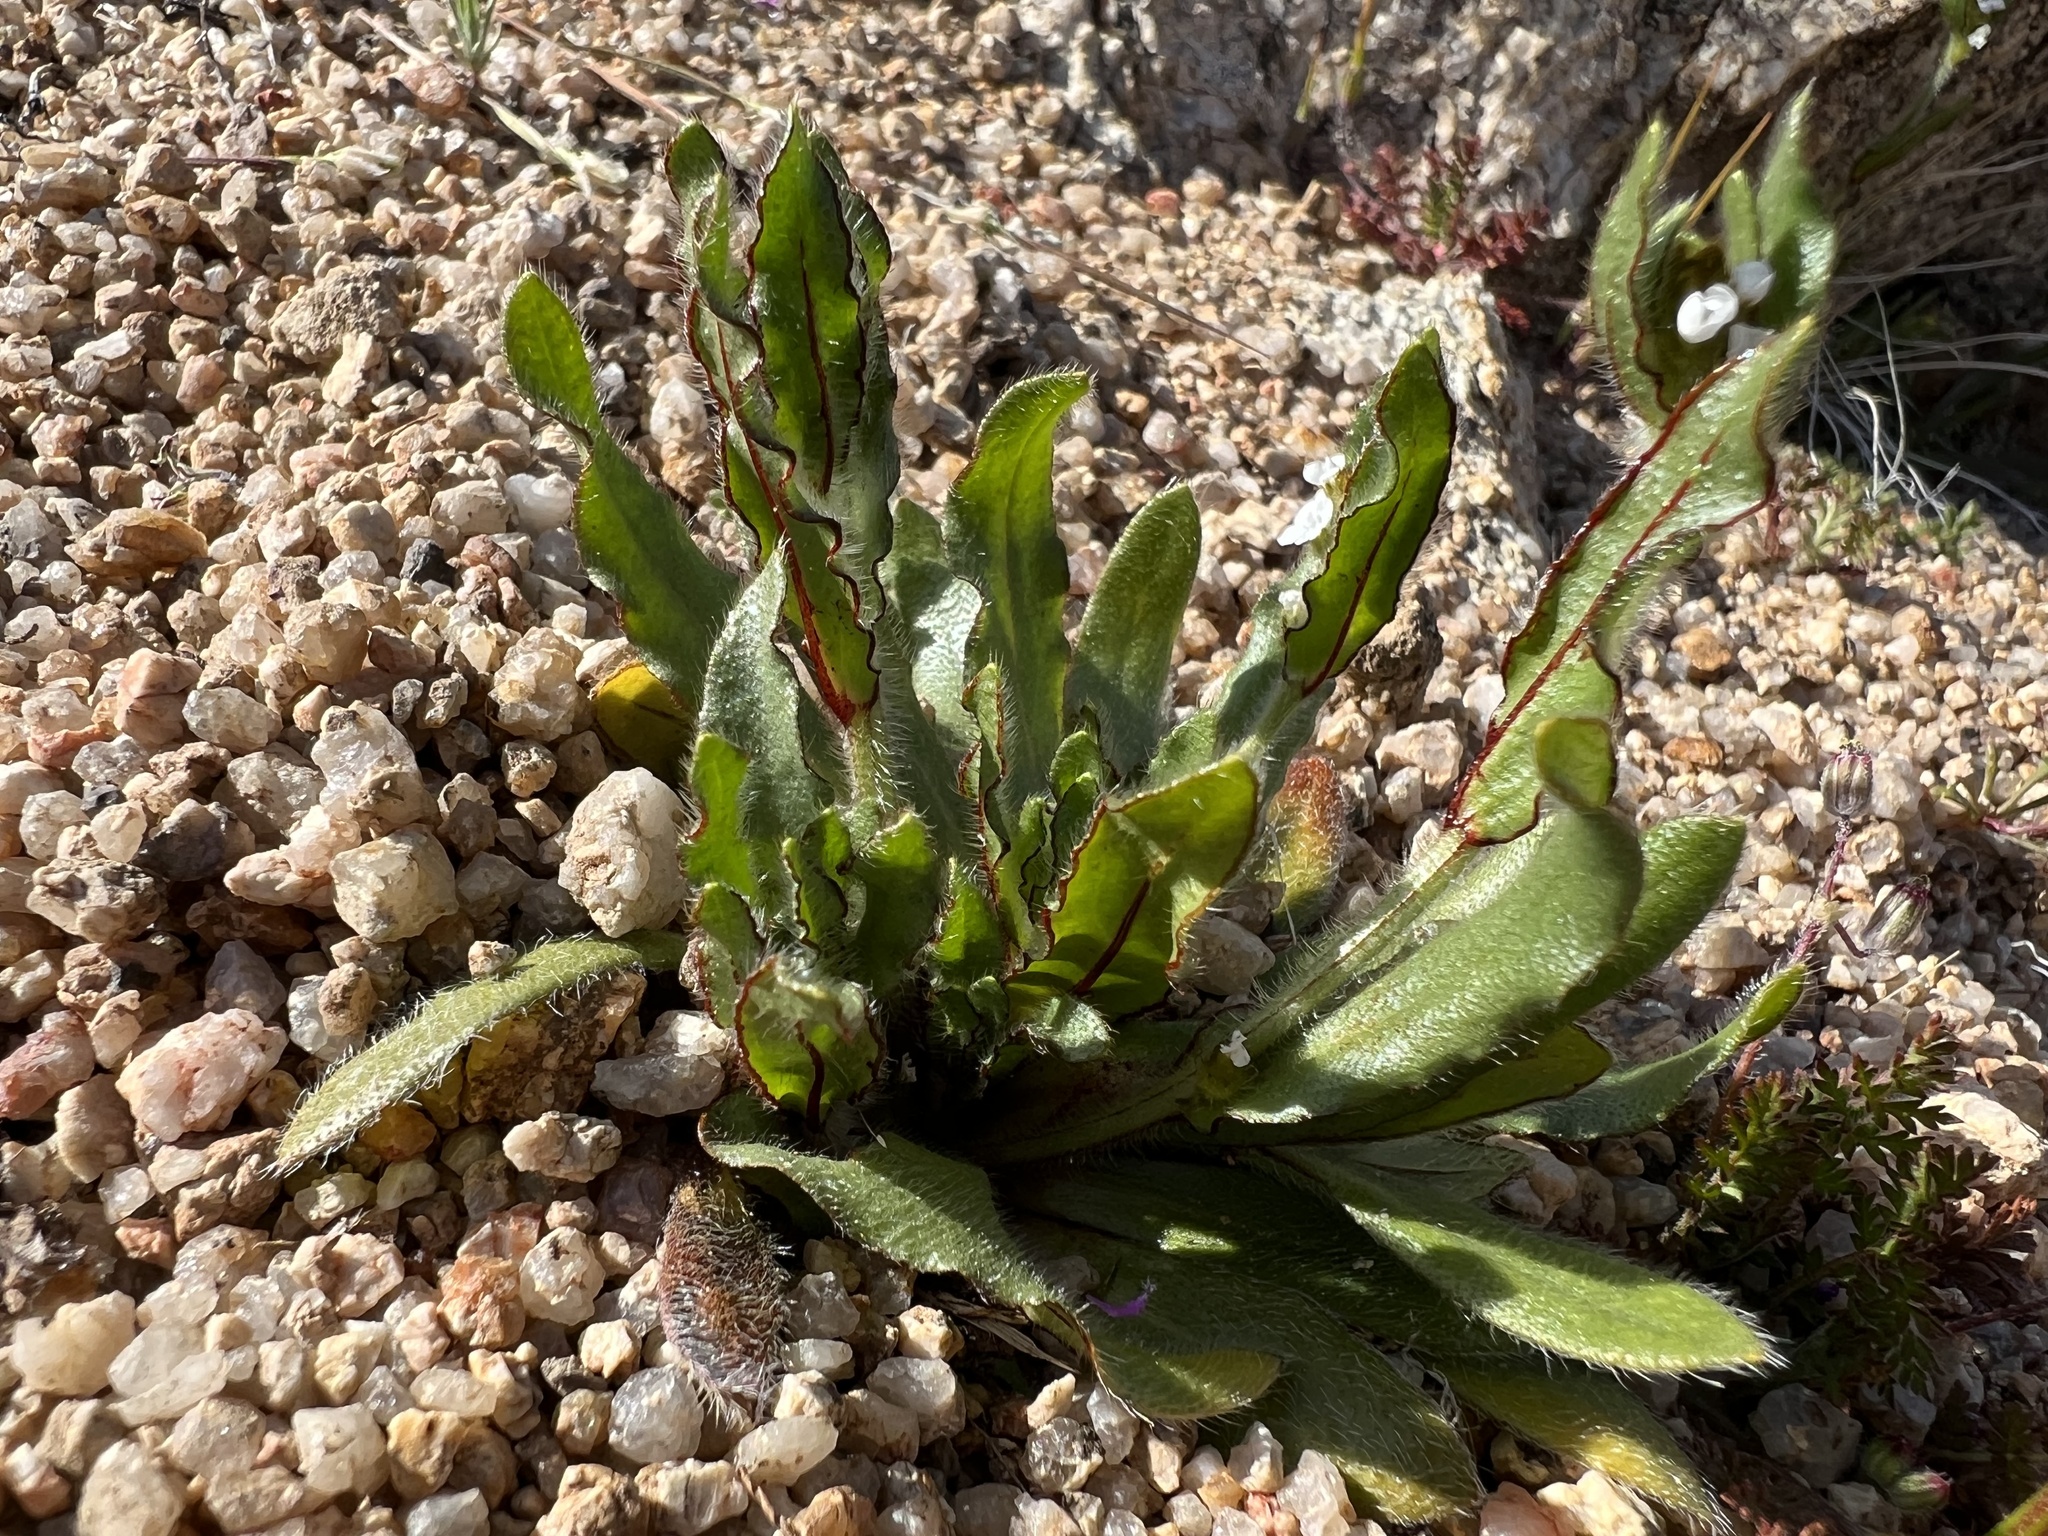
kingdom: Plantae
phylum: Tracheophyta
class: Magnoliopsida
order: Boraginales
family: Boraginaceae
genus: Plagiobothrys
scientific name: Plagiobothrys arizonicus
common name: Arizona popcorn-flower
